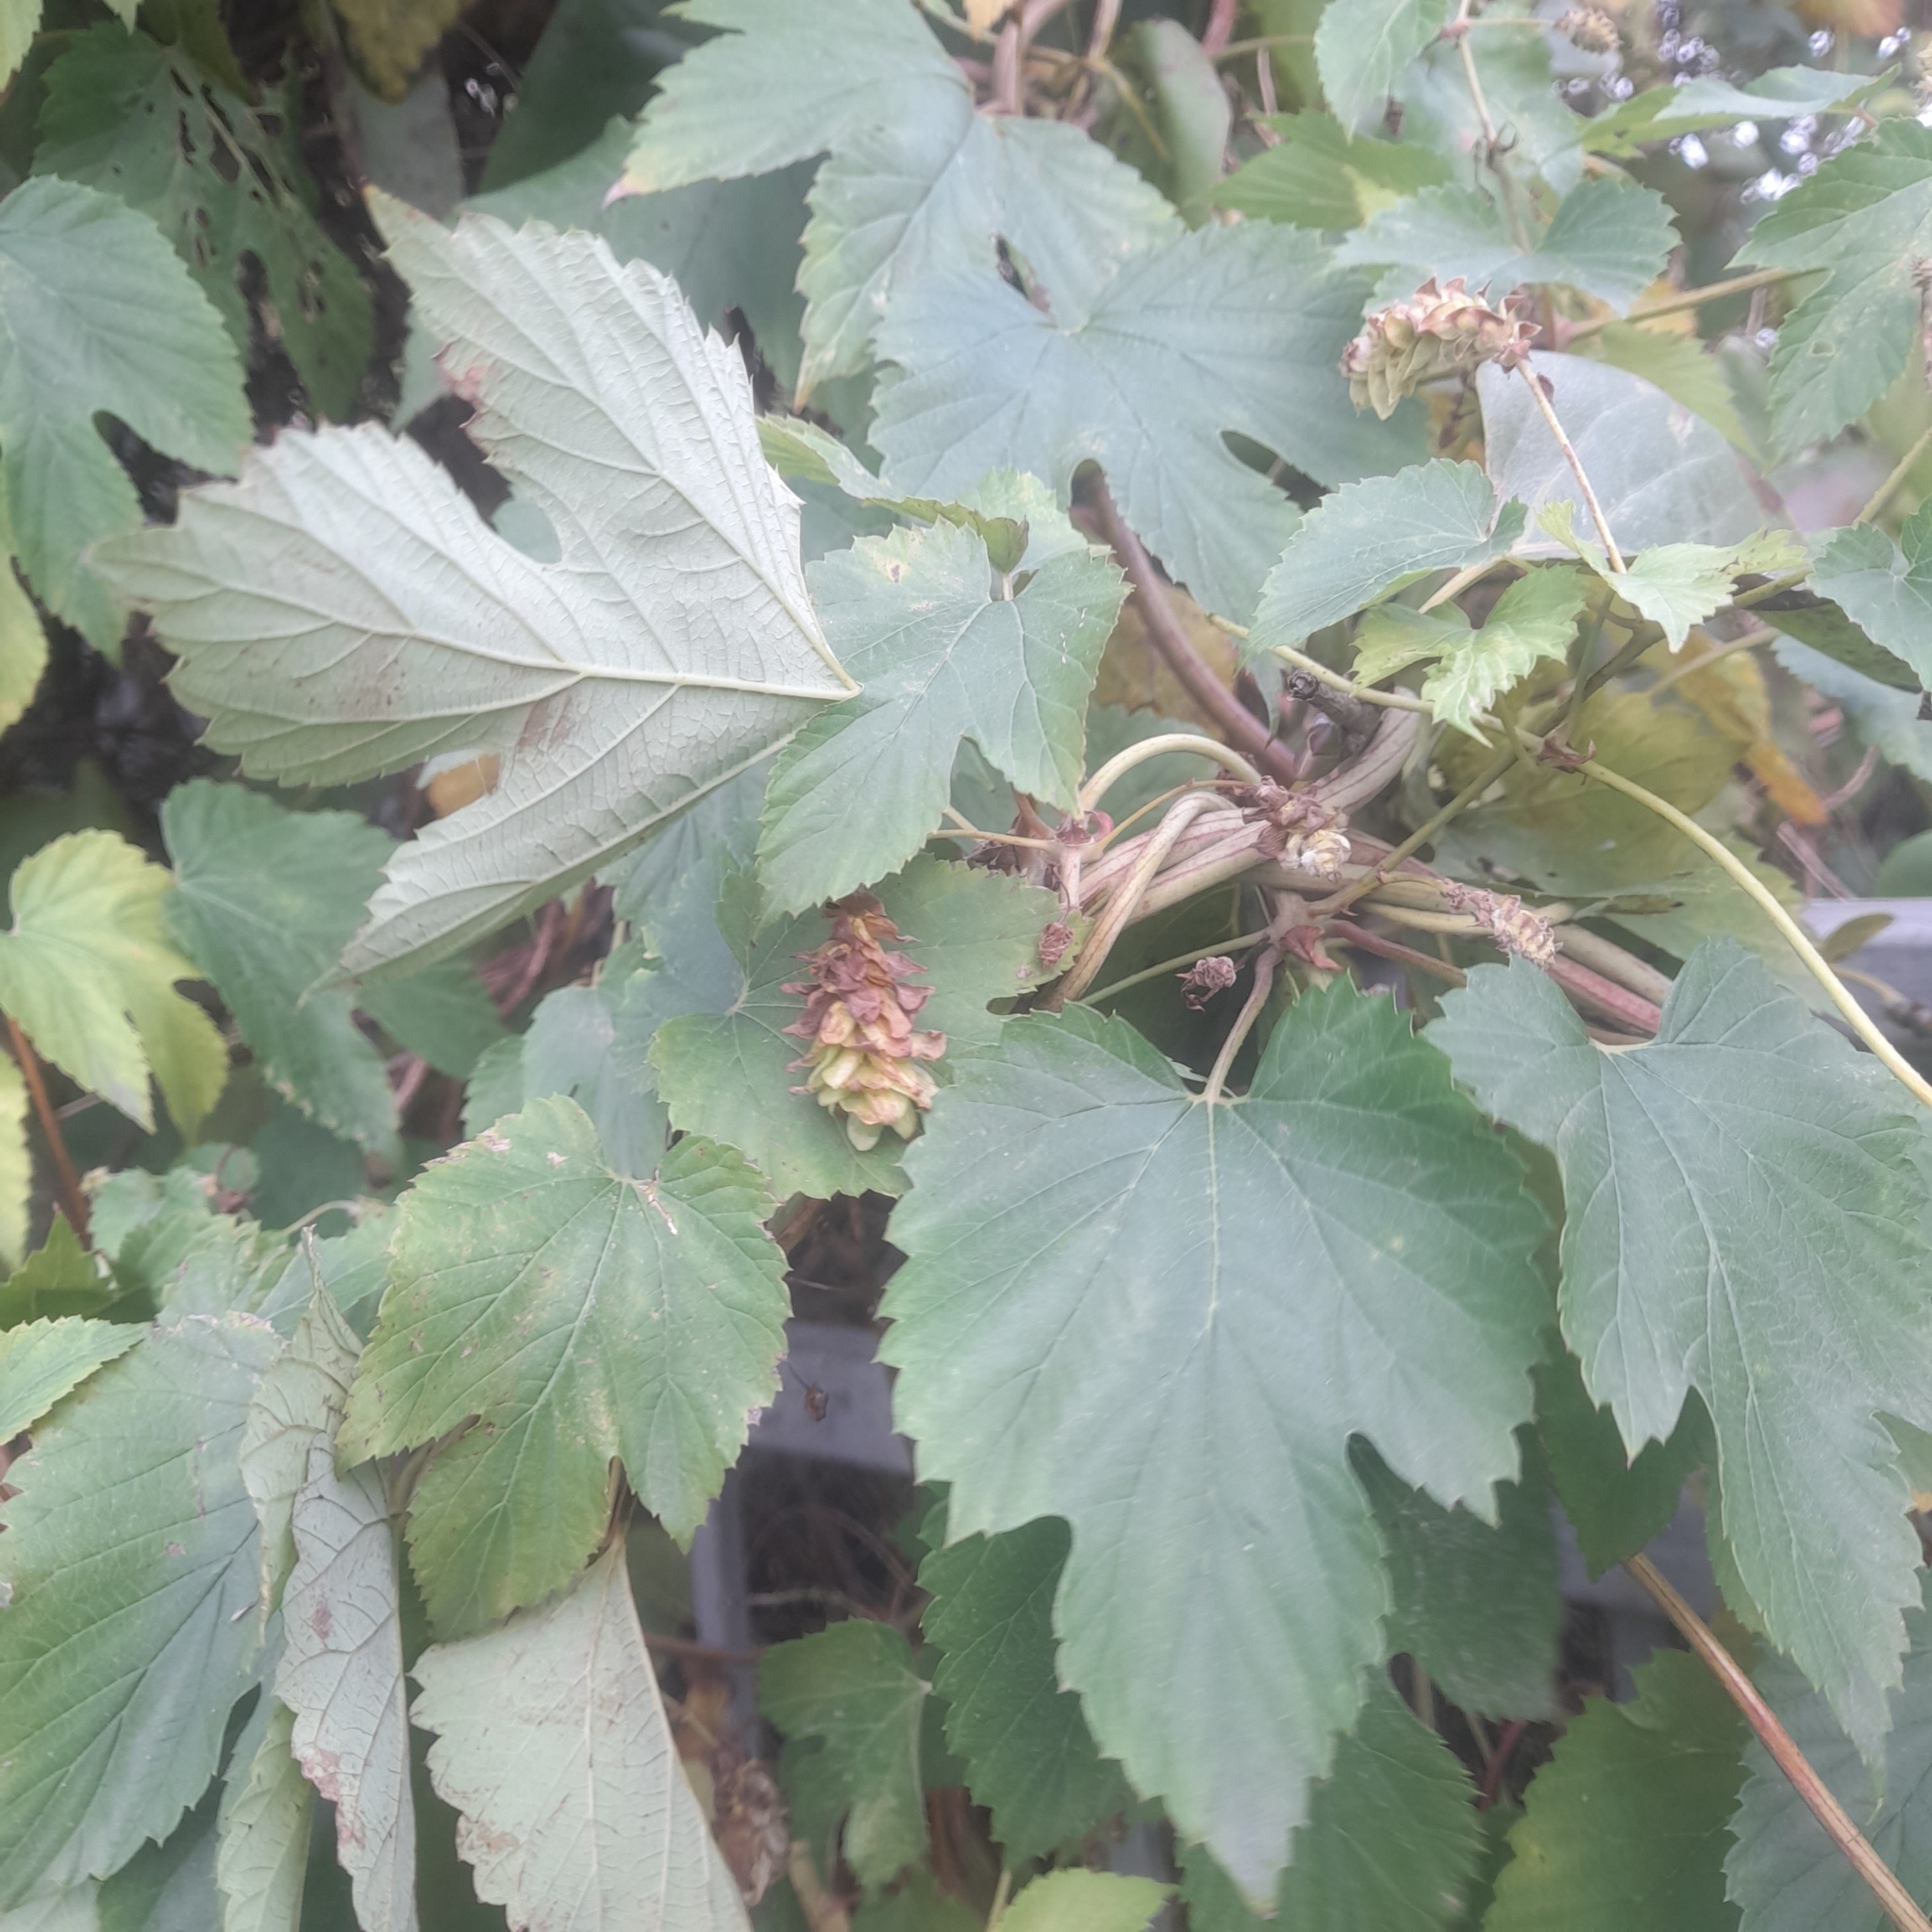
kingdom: Plantae
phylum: Tracheophyta
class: Magnoliopsida
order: Rosales
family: Cannabaceae
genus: Humulus
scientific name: Humulus lupulus
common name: Hop
